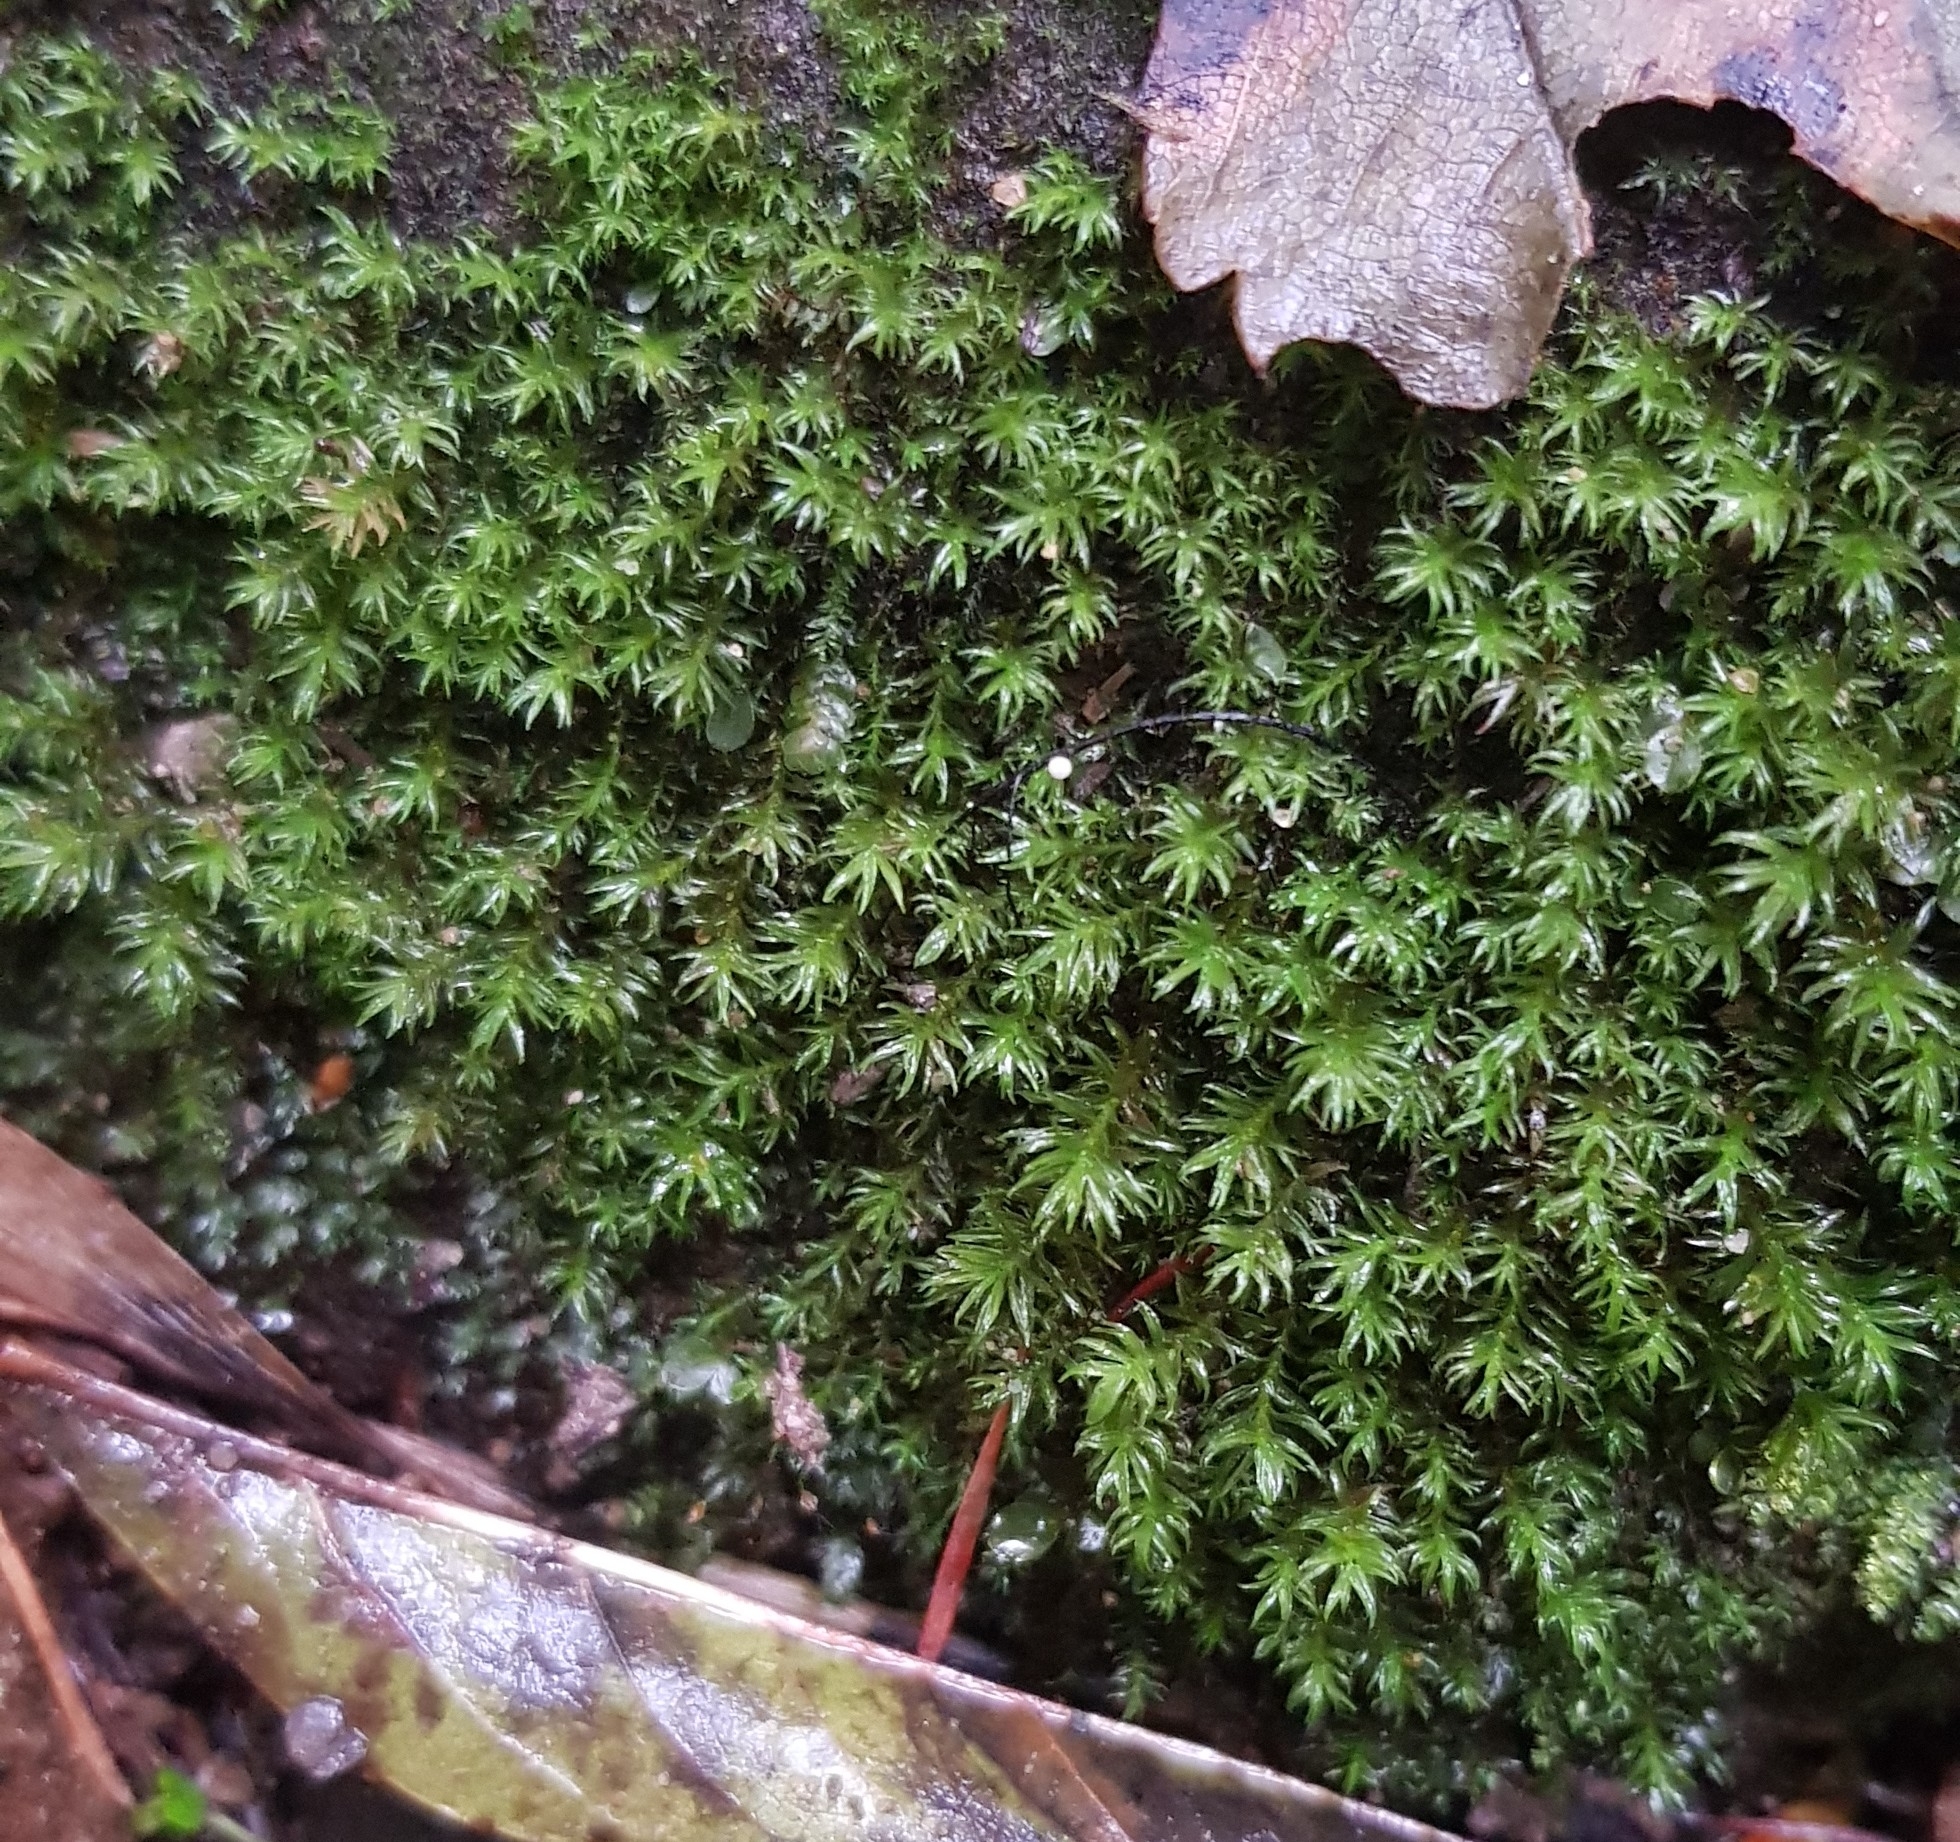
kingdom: Plantae
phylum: Bryophyta
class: Bryopsida
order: Dicranales
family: Aongstroemiaceae
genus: Dichodontium
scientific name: Dichodontium pellucidum
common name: Transparent fork moss
